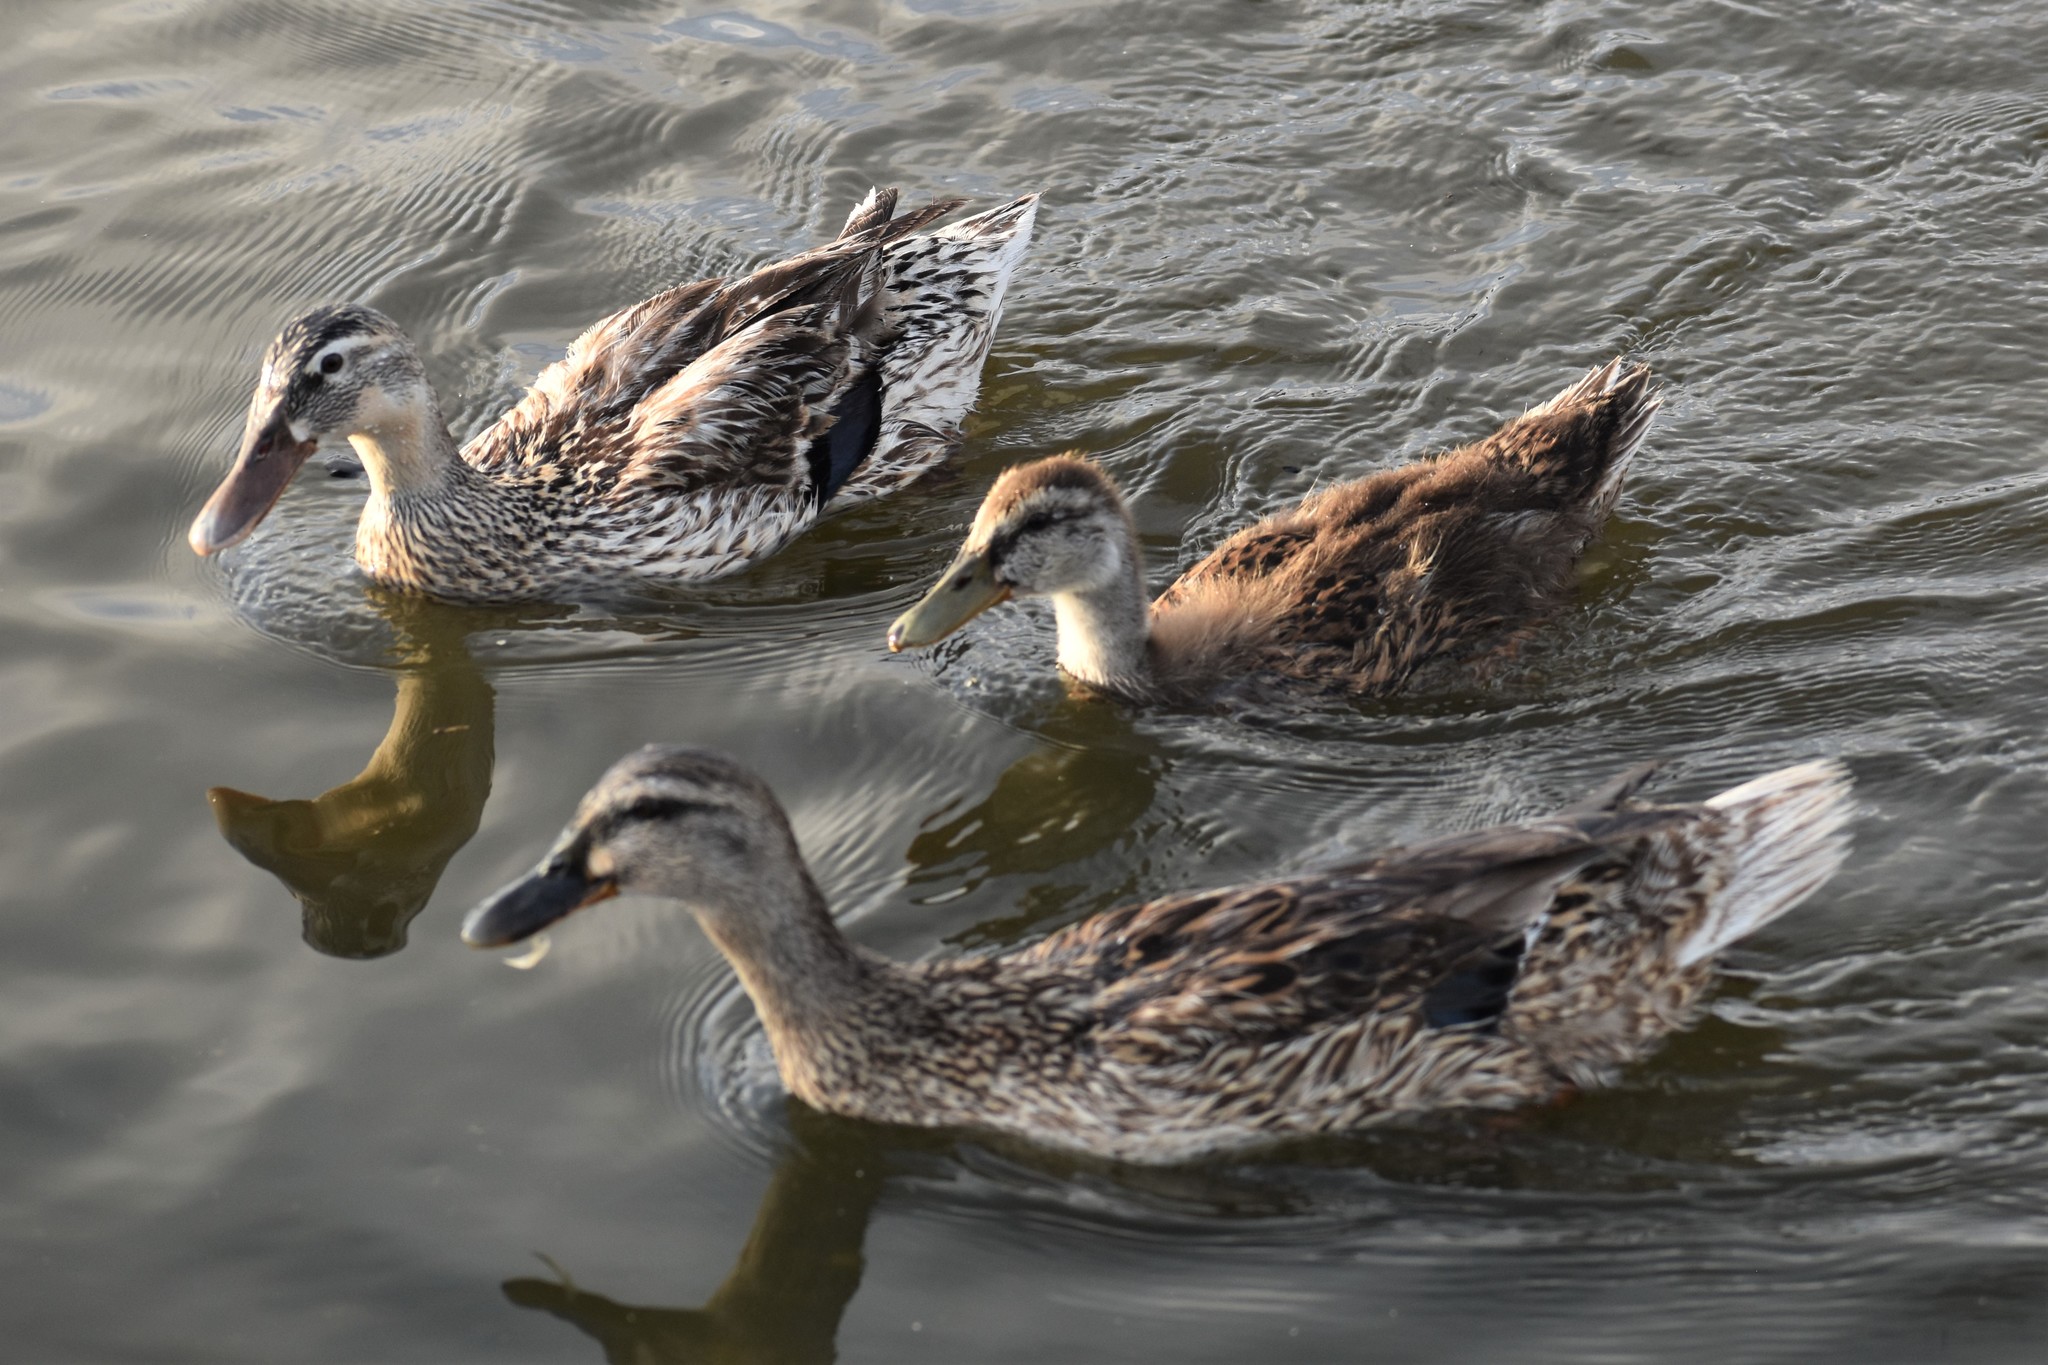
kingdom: Animalia
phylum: Chordata
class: Aves
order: Anseriformes
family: Anatidae
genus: Anas
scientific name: Anas platyrhynchos
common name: Mallard
